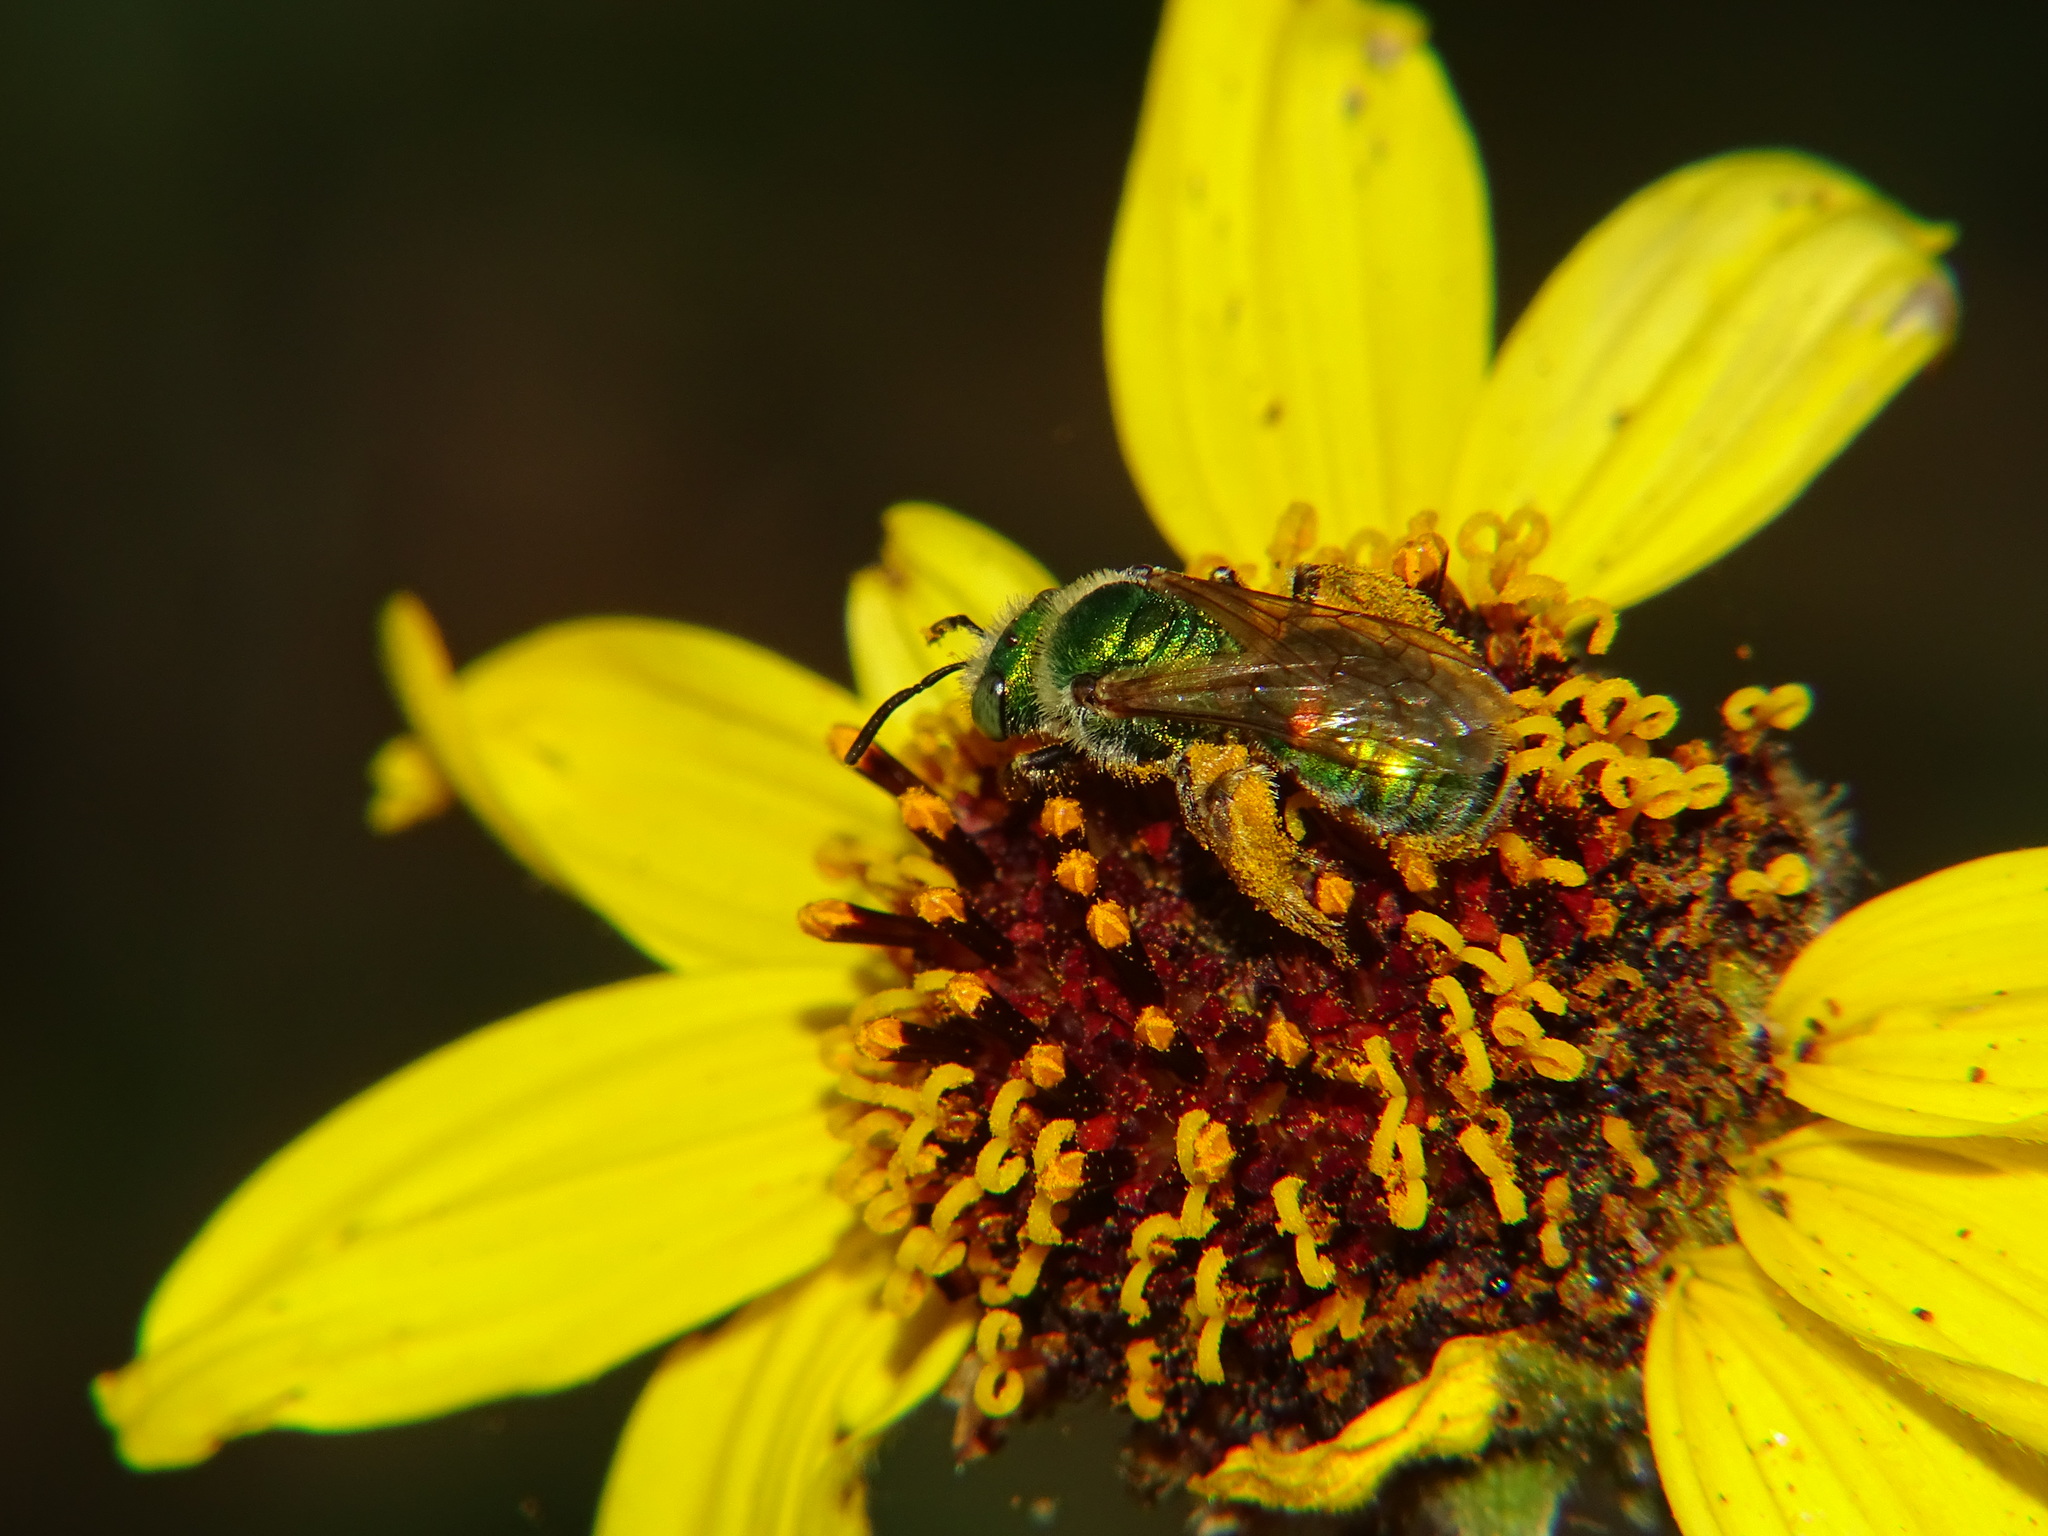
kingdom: Animalia
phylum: Arthropoda
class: Insecta
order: Hymenoptera
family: Halictidae
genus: Agapostemon
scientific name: Agapostemon texanus
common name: Texas striped sweat bee
